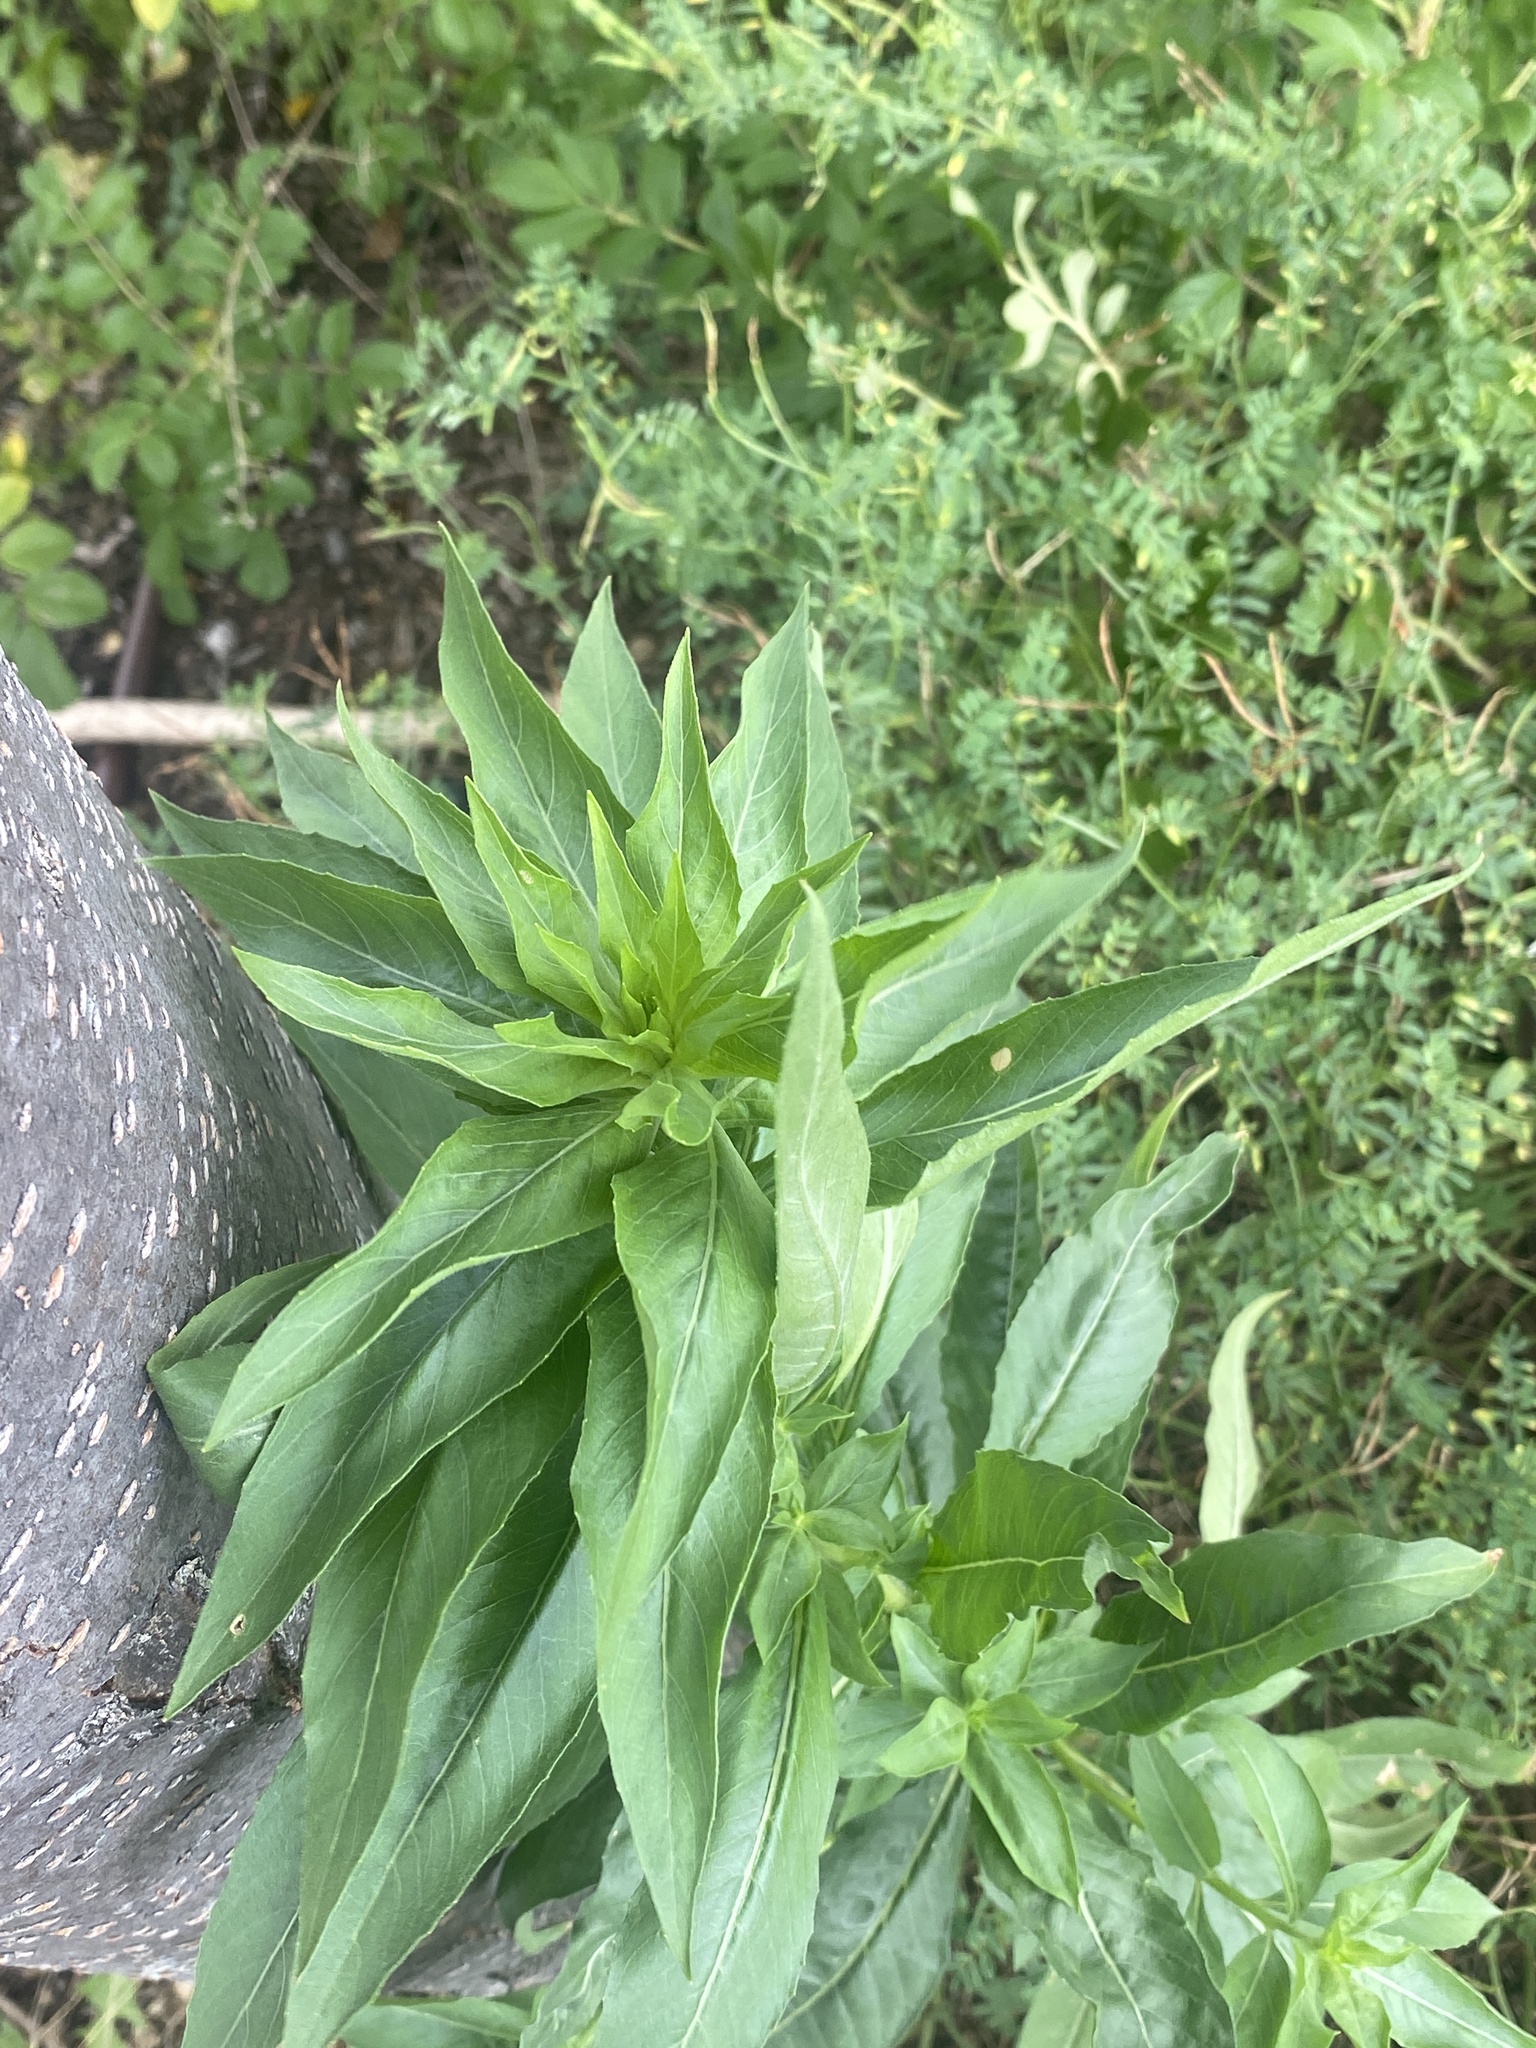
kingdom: Plantae
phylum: Tracheophyta
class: Magnoliopsida
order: Myrtales
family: Onagraceae
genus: Oenothera
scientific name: Oenothera biennis
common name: Common evening-primrose
